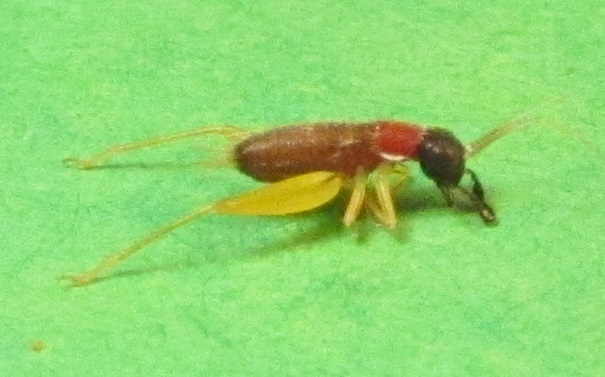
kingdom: Animalia
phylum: Arthropoda
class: Insecta
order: Orthoptera
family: Trigonidiidae
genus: Phyllopalpus
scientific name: Phyllopalpus pulchellus
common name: Handsome trig
